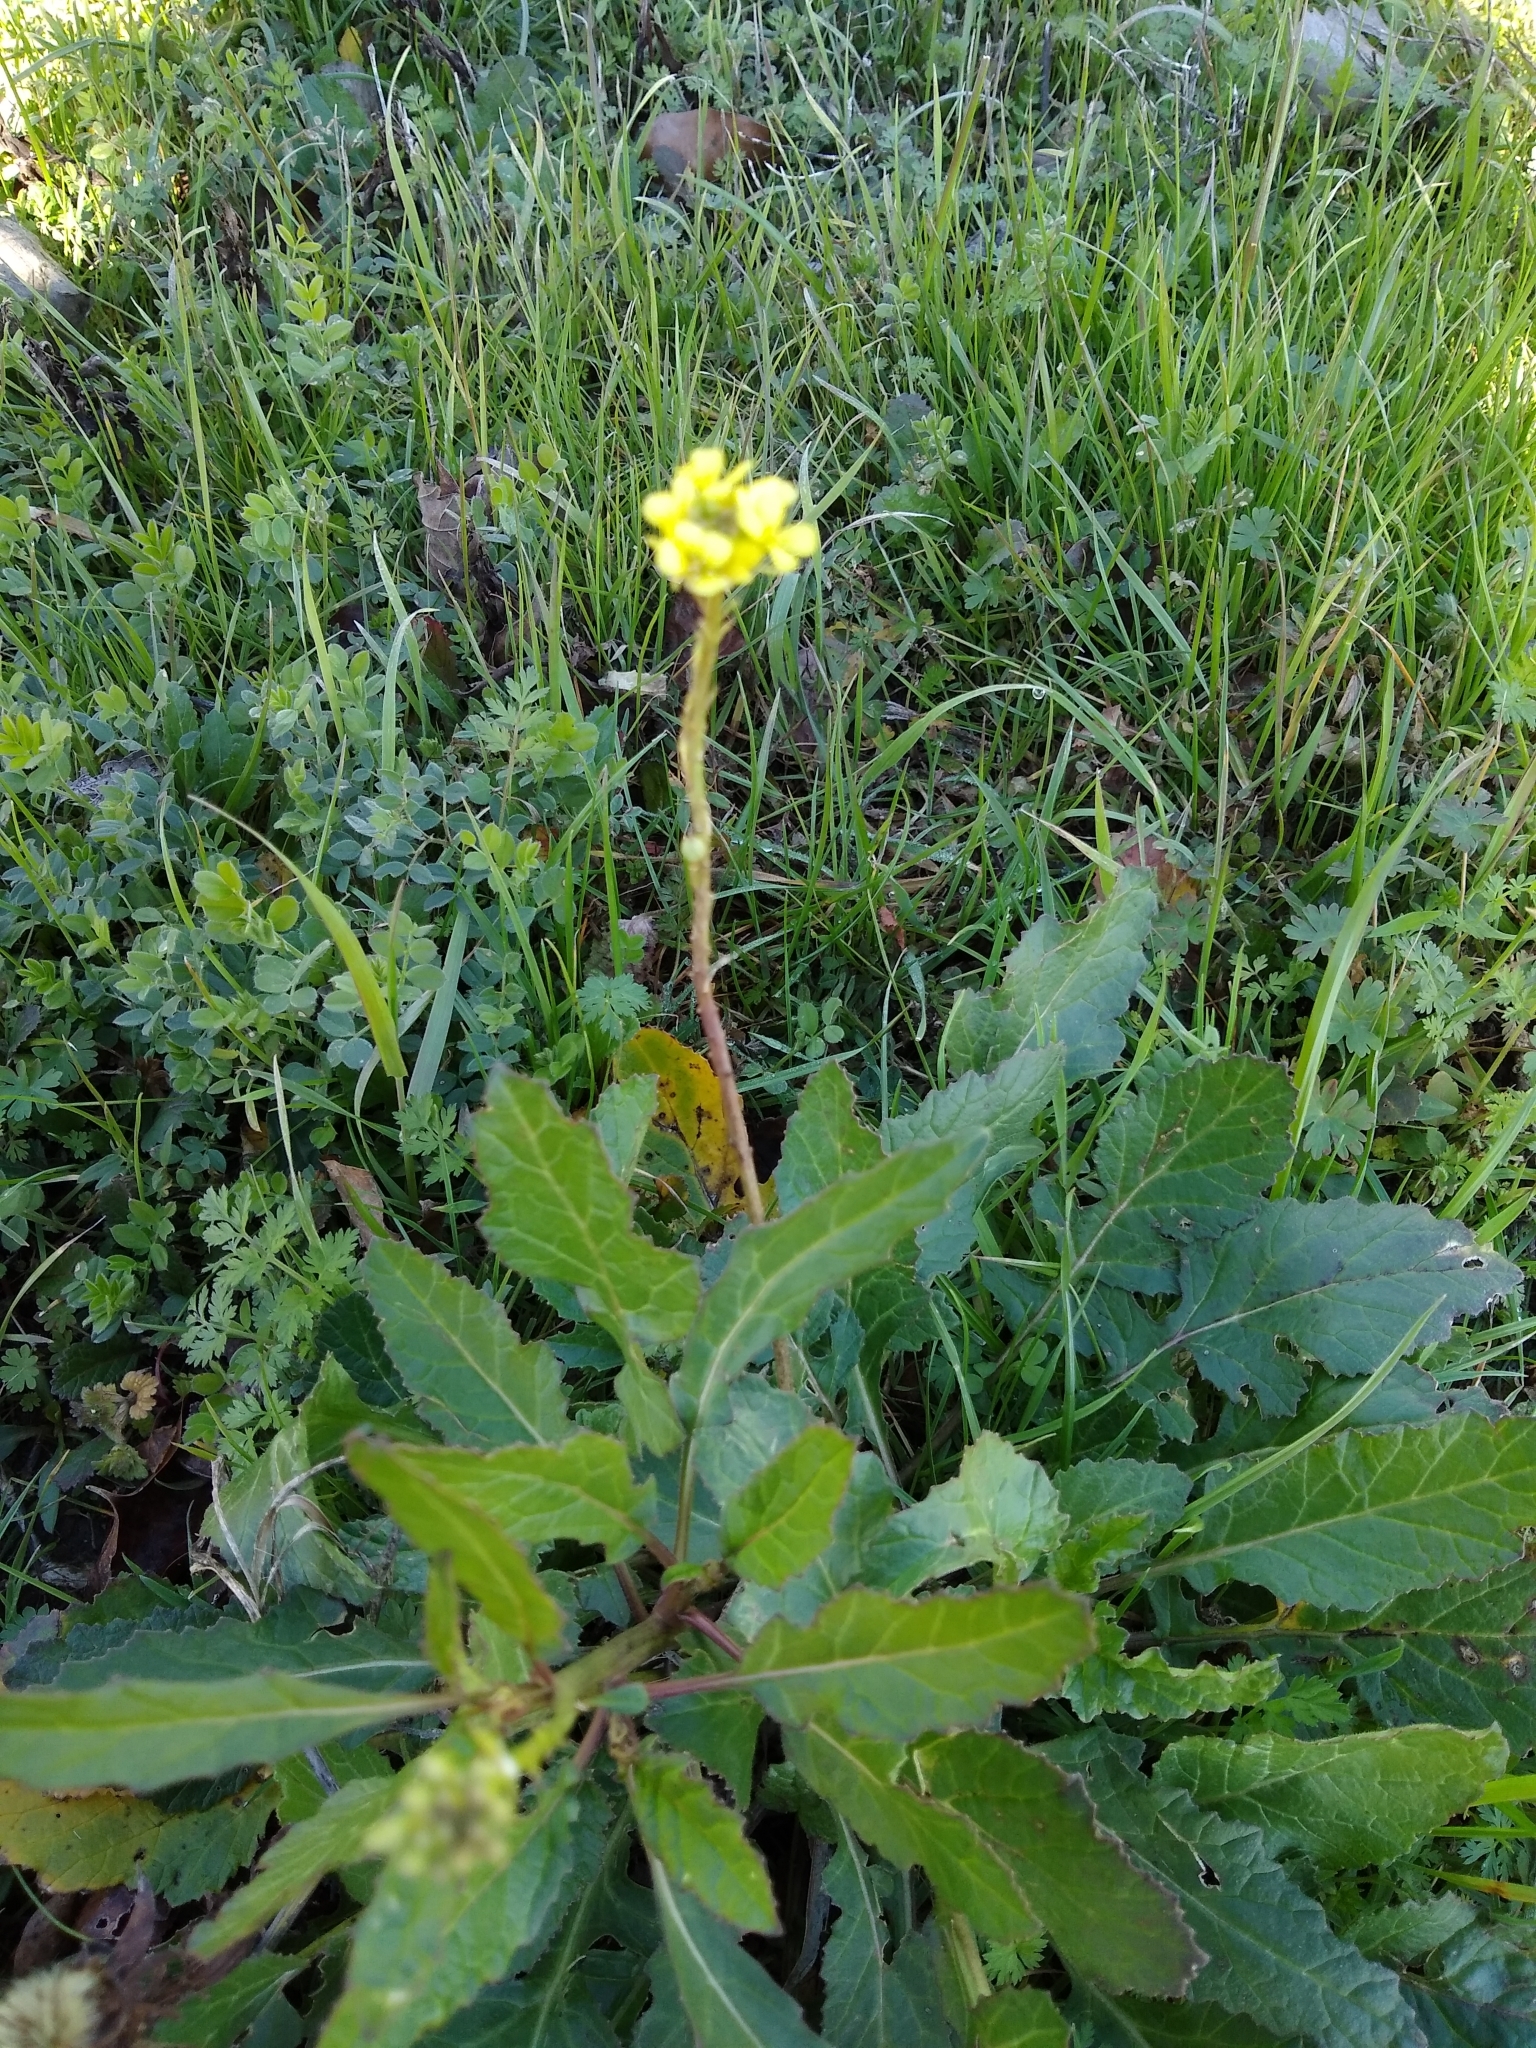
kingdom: Plantae
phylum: Tracheophyta
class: Magnoliopsida
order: Brassicales
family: Brassicaceae
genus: Rapistrum
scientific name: Rapistrum rugosum
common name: Annual bastardcabbage
